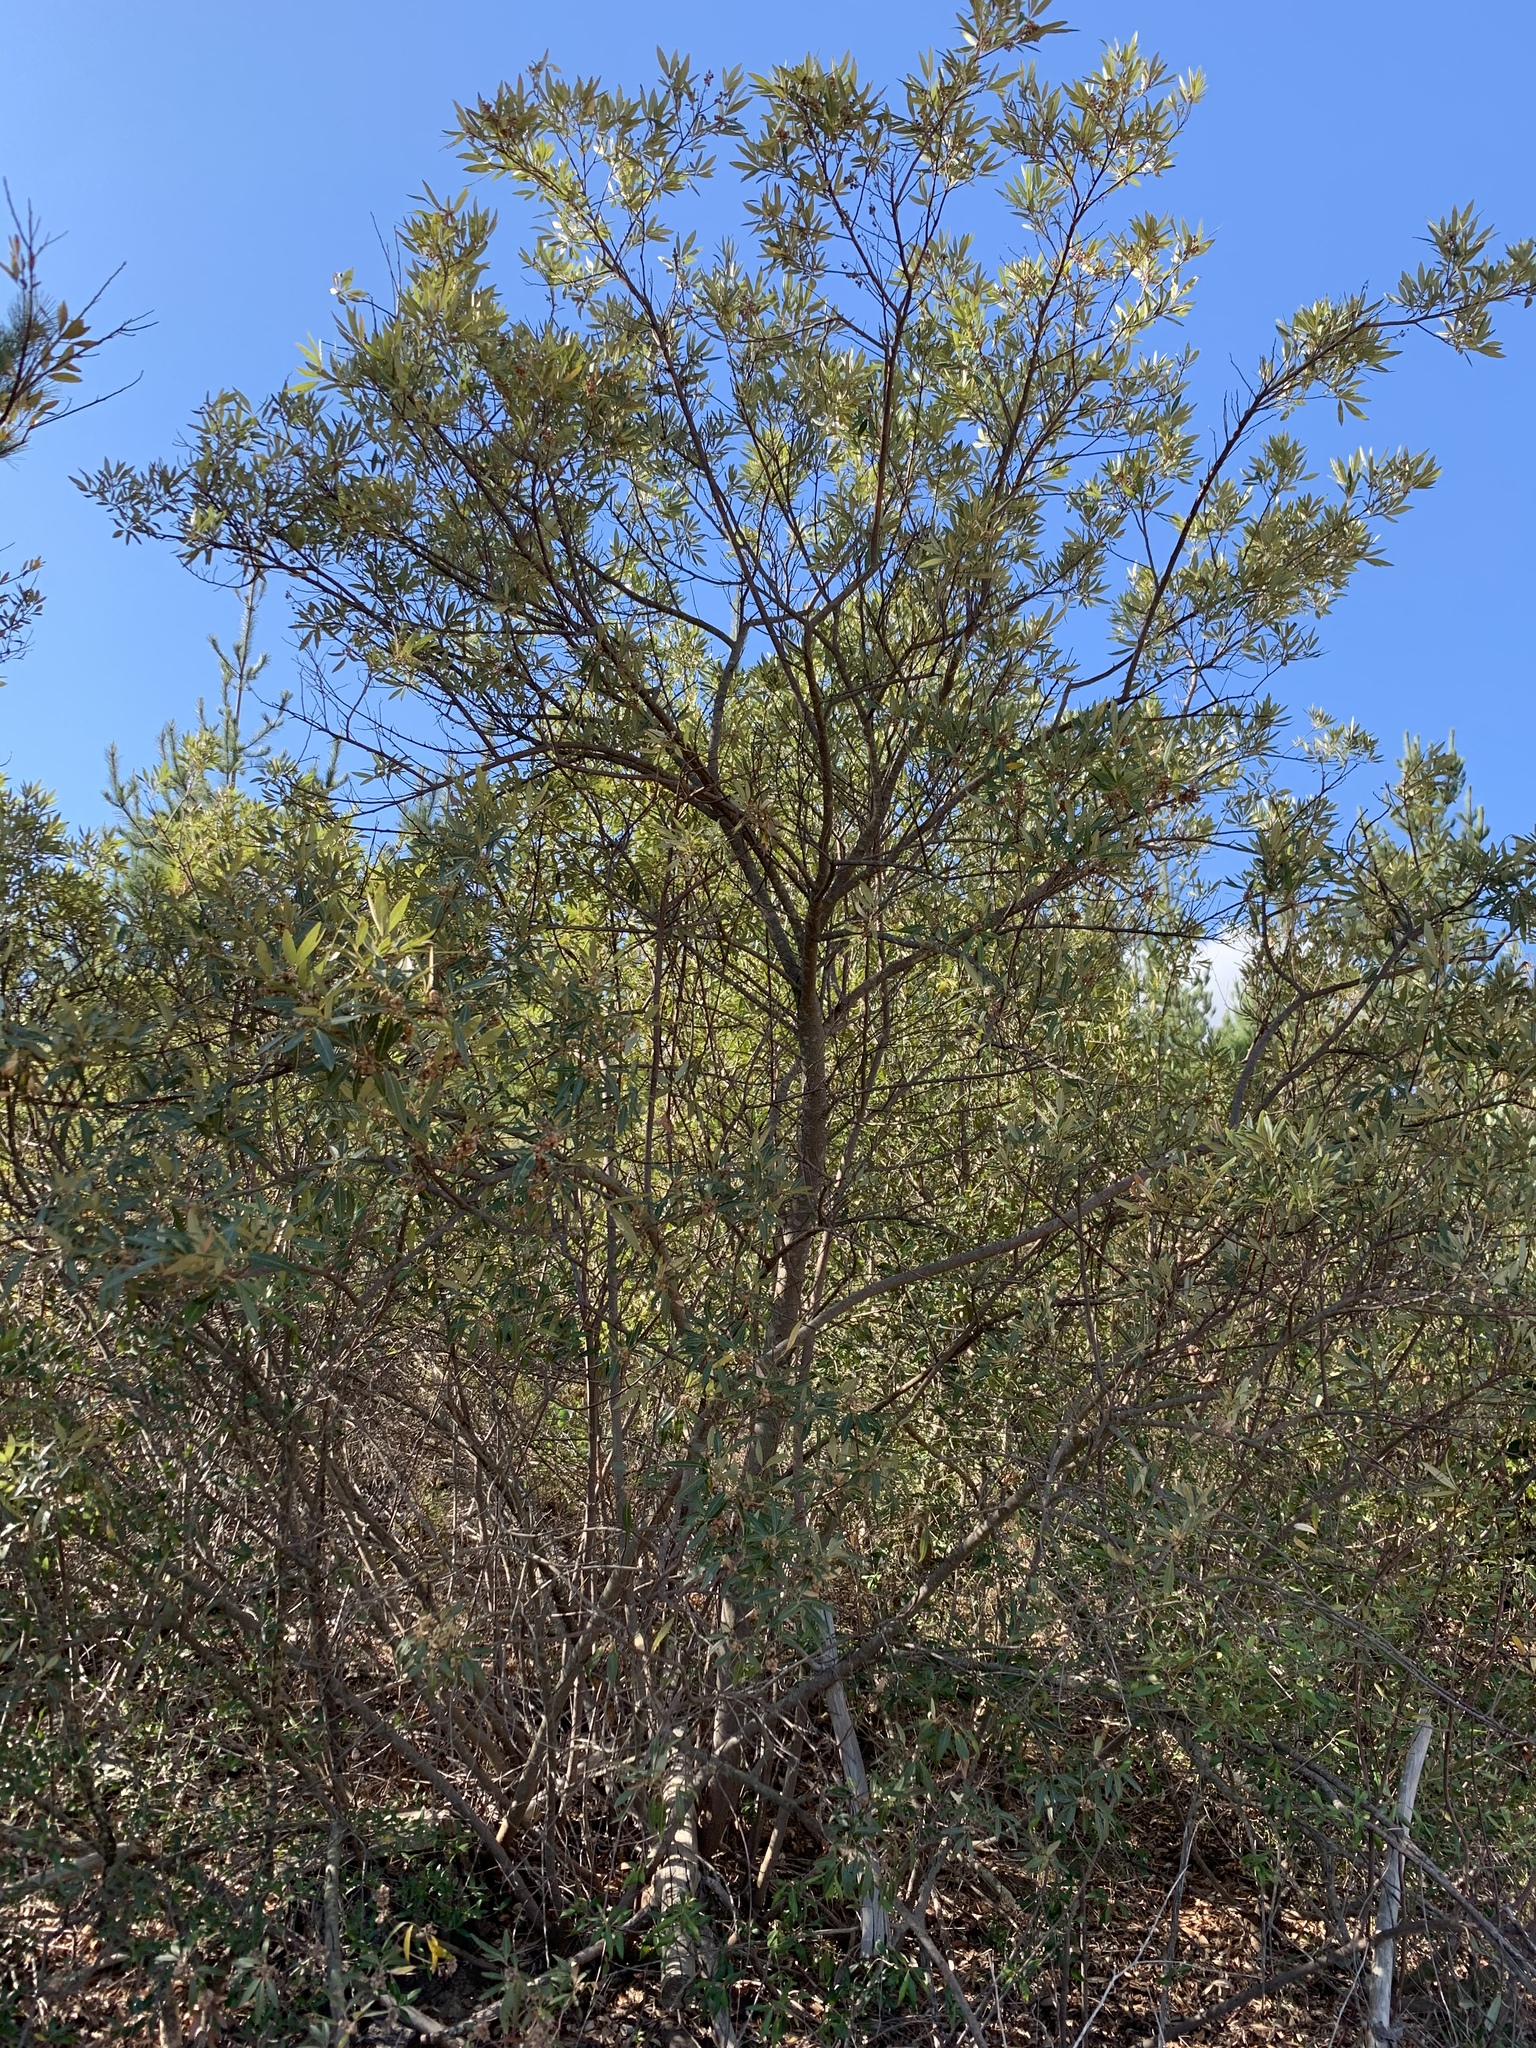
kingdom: Plantae
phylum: Tracheophyta
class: Magnoliopsida
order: Sapindales
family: Anacardiaceae
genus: Searsia
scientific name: Searsia angustifolia
